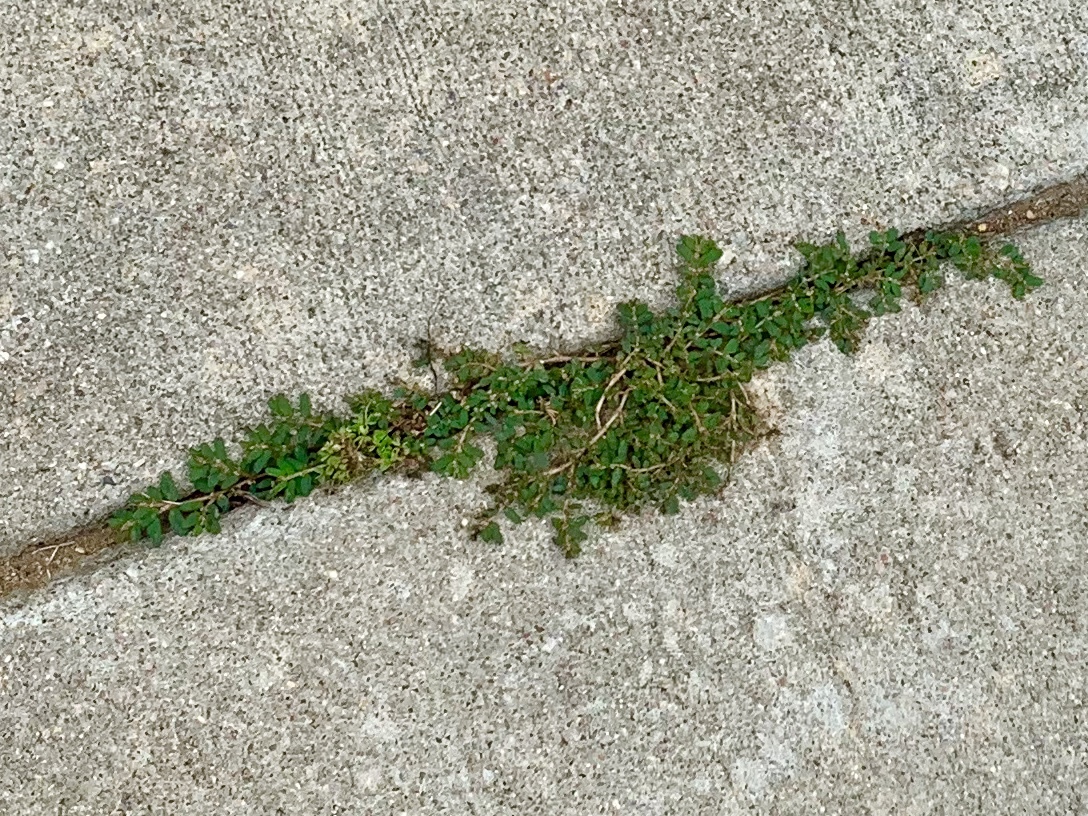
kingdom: Plantae
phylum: Tracheophyta
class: Magnoliopsida
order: Malpighiales
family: Euphorbiaceae
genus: Euphorbia
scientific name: Euphorbia maculata
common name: Spotted spurge
